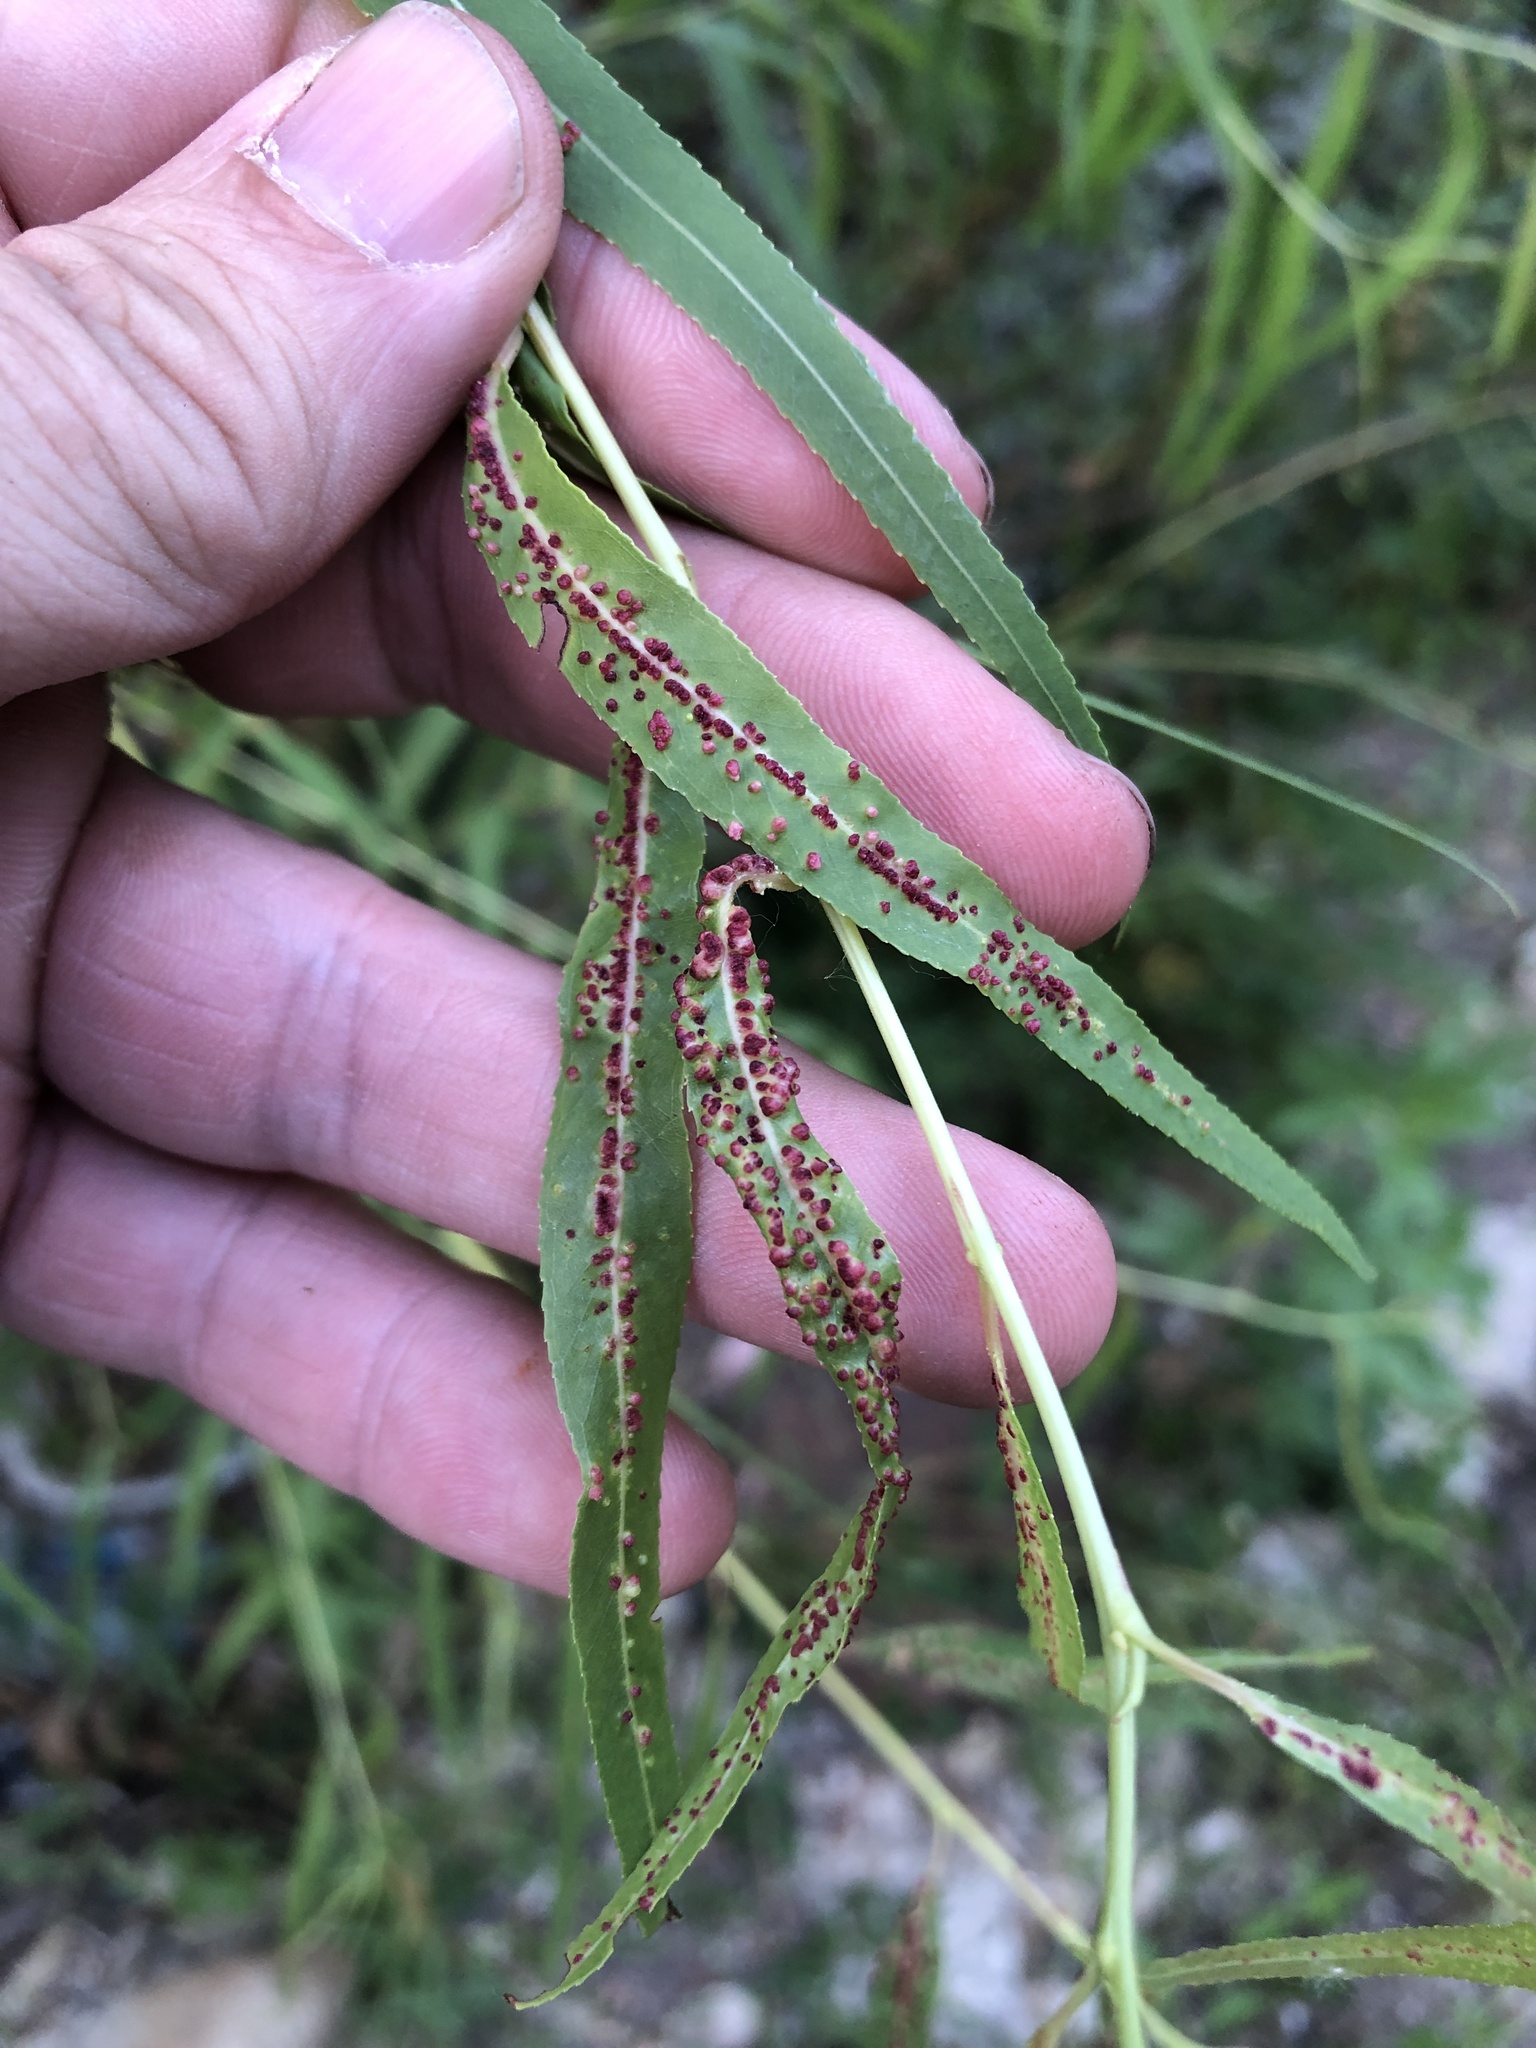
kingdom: Animalia
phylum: Arthropoda
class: Arachnida
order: Trombidiformes
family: Eriophyidae
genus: Aculus
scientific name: Aculus tetanothrix
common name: Willow bead gall mite
